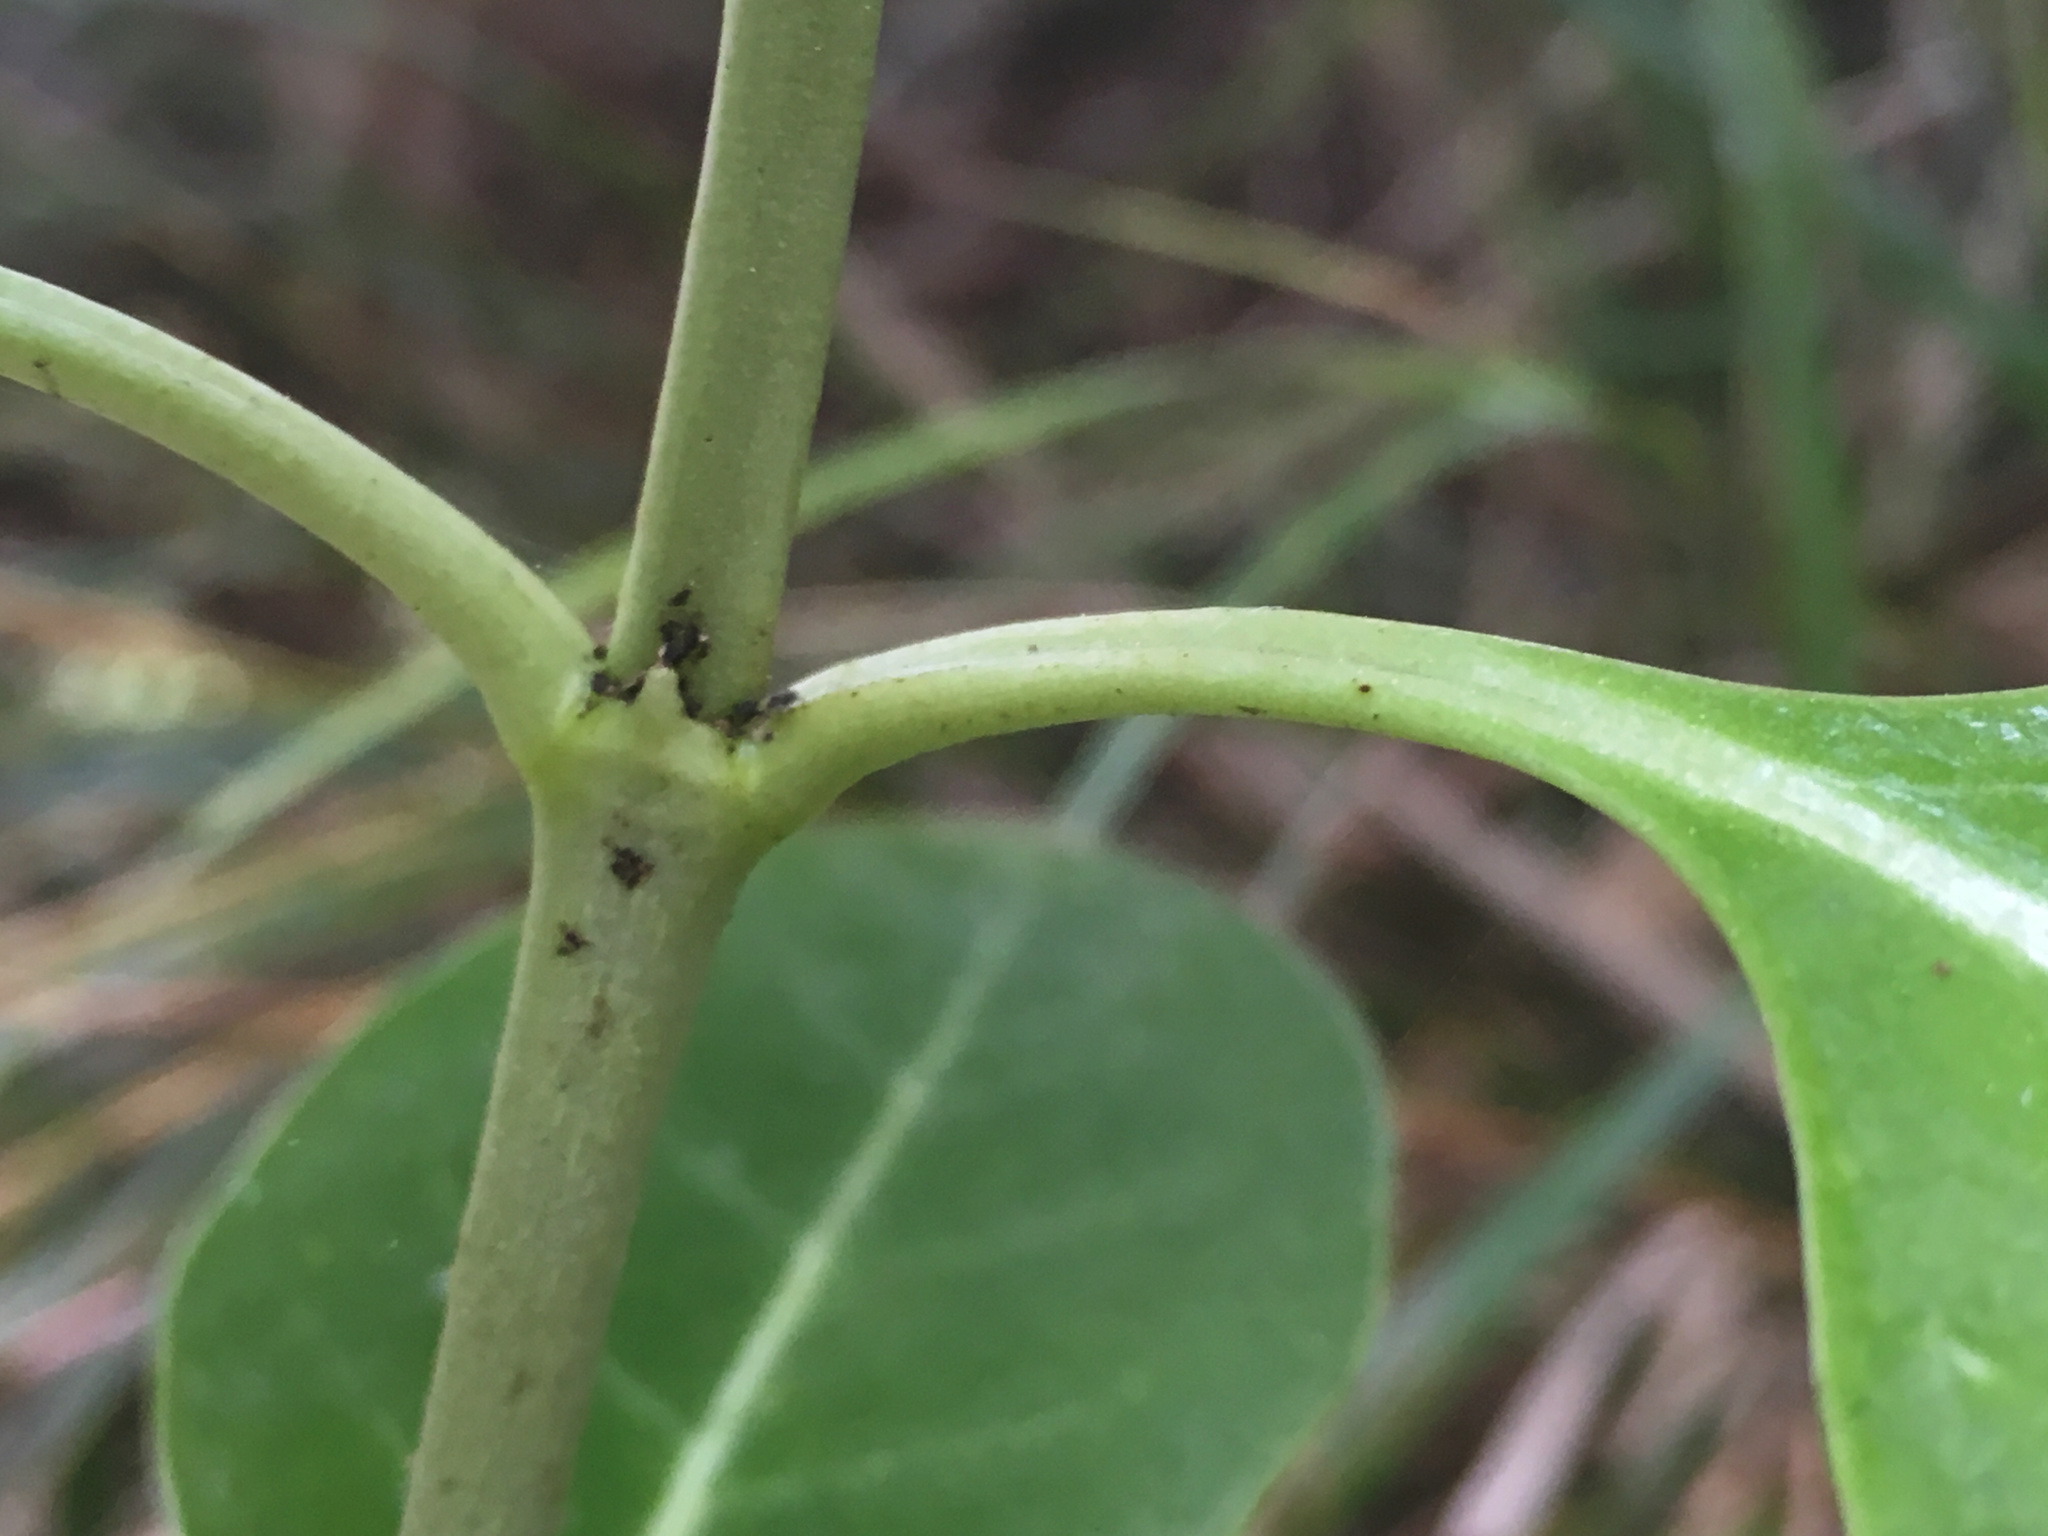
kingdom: Plantae
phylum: Tracheophyta
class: Magnoliopsida
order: Gentianales
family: Rubiaceae
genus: Coprosma
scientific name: Coprosma repens
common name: Tree bedstraw
